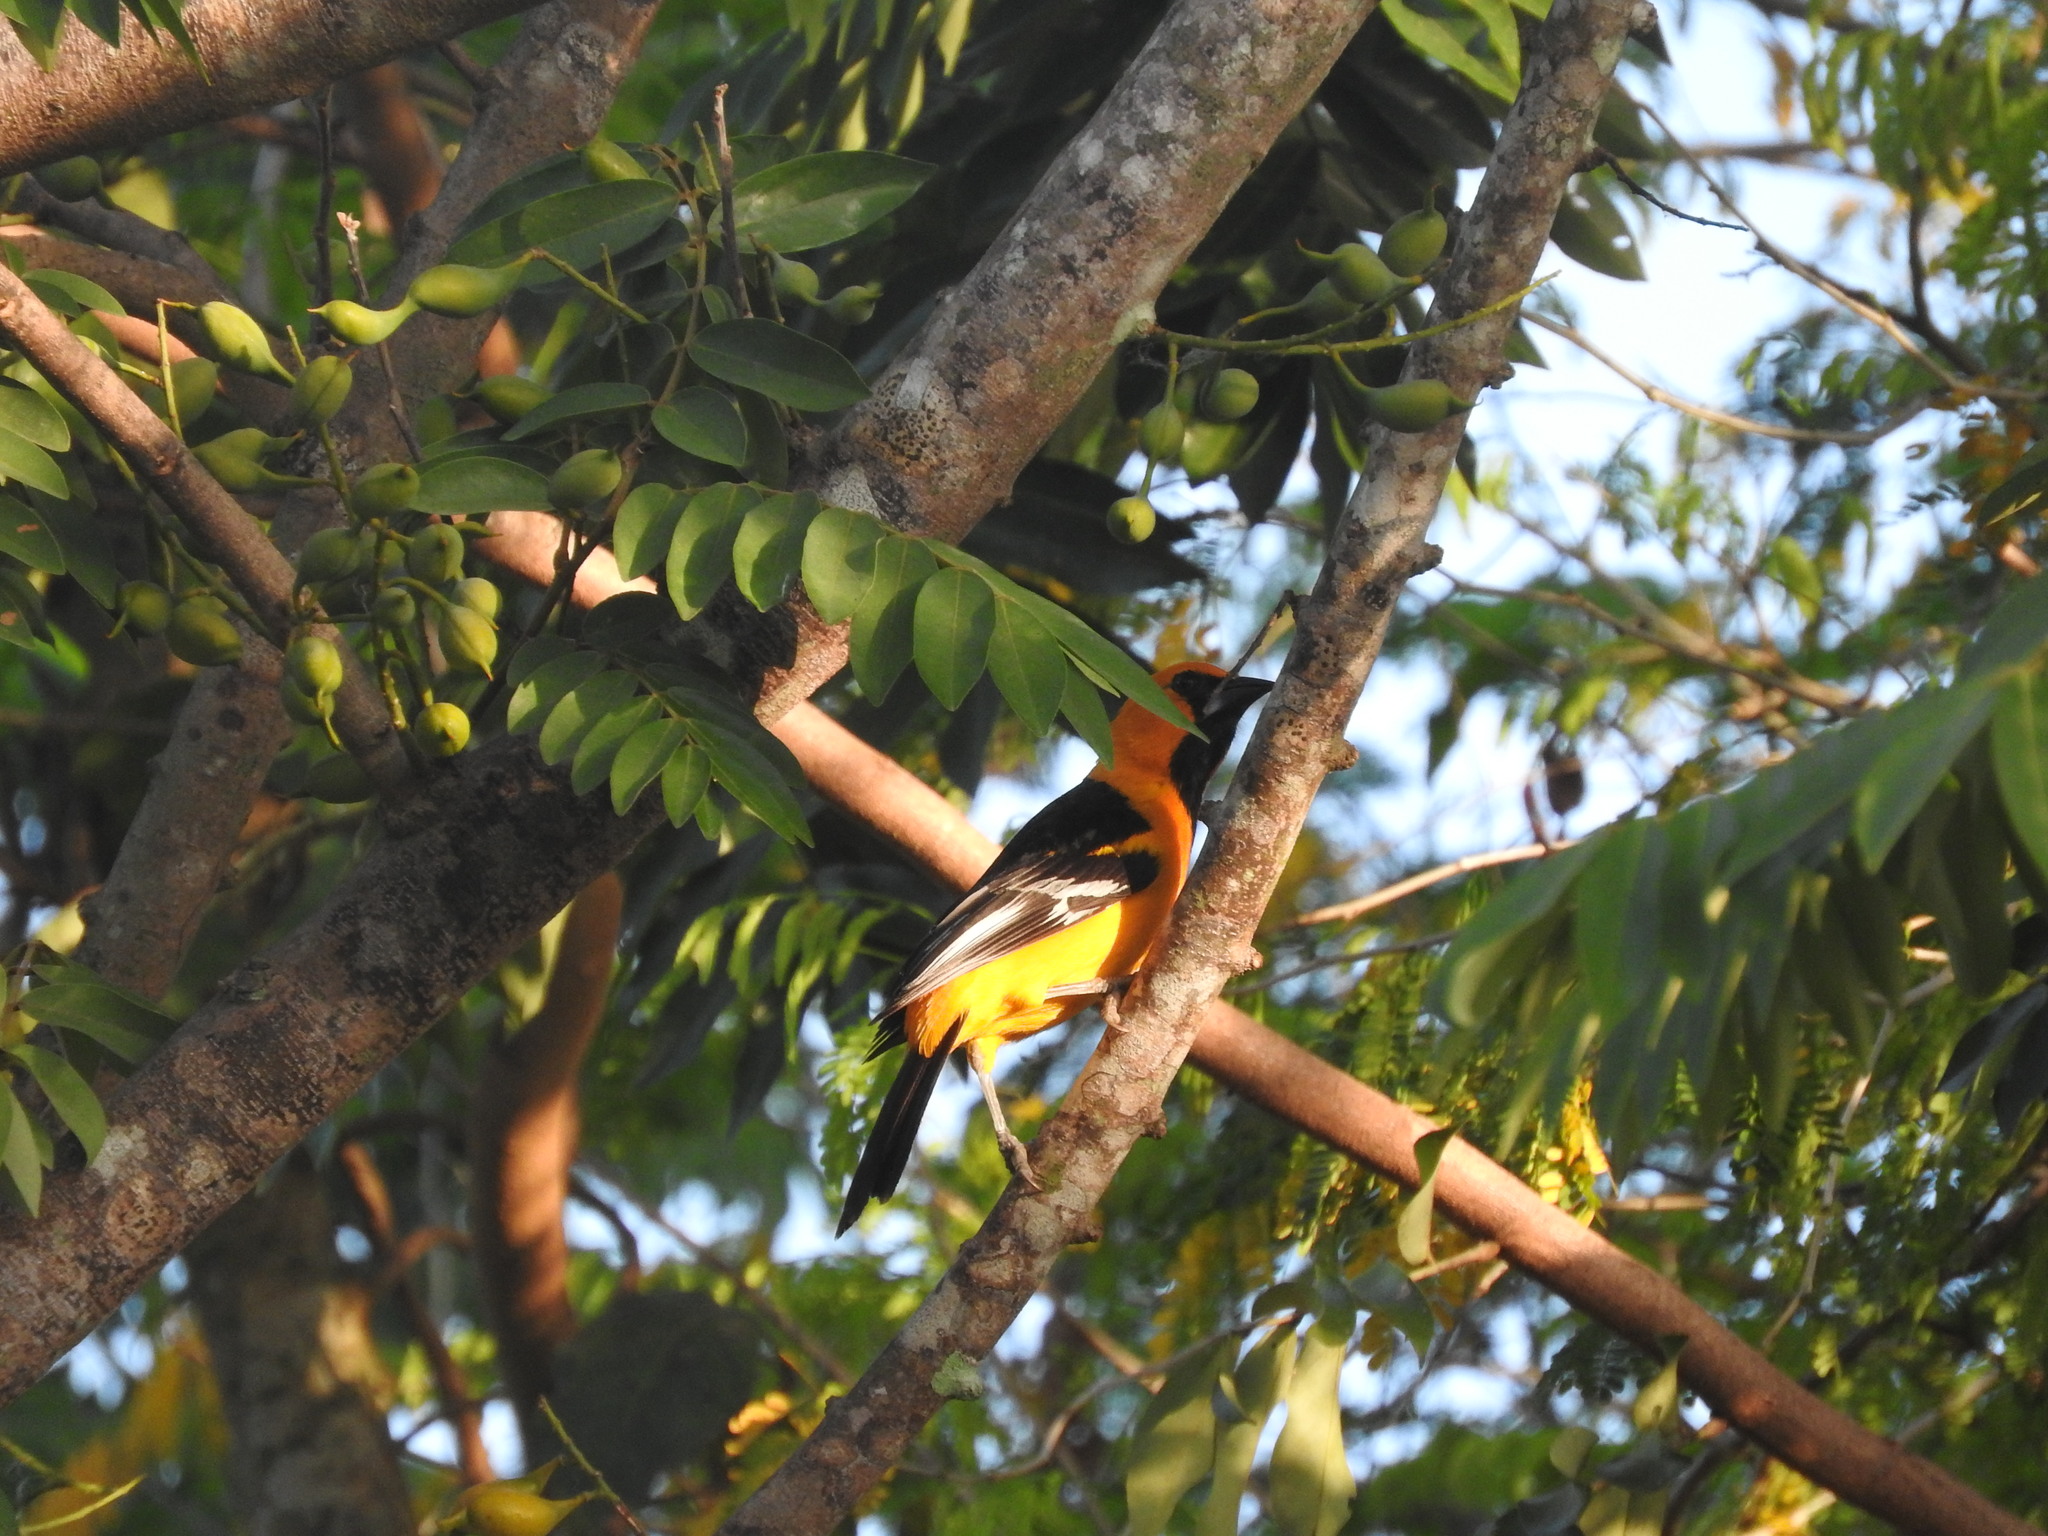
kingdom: Animalia
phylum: Chordata
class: Aves
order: Passeriformes
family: Icteridae
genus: Icterus
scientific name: Icterus gularis
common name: Altamira oriole
